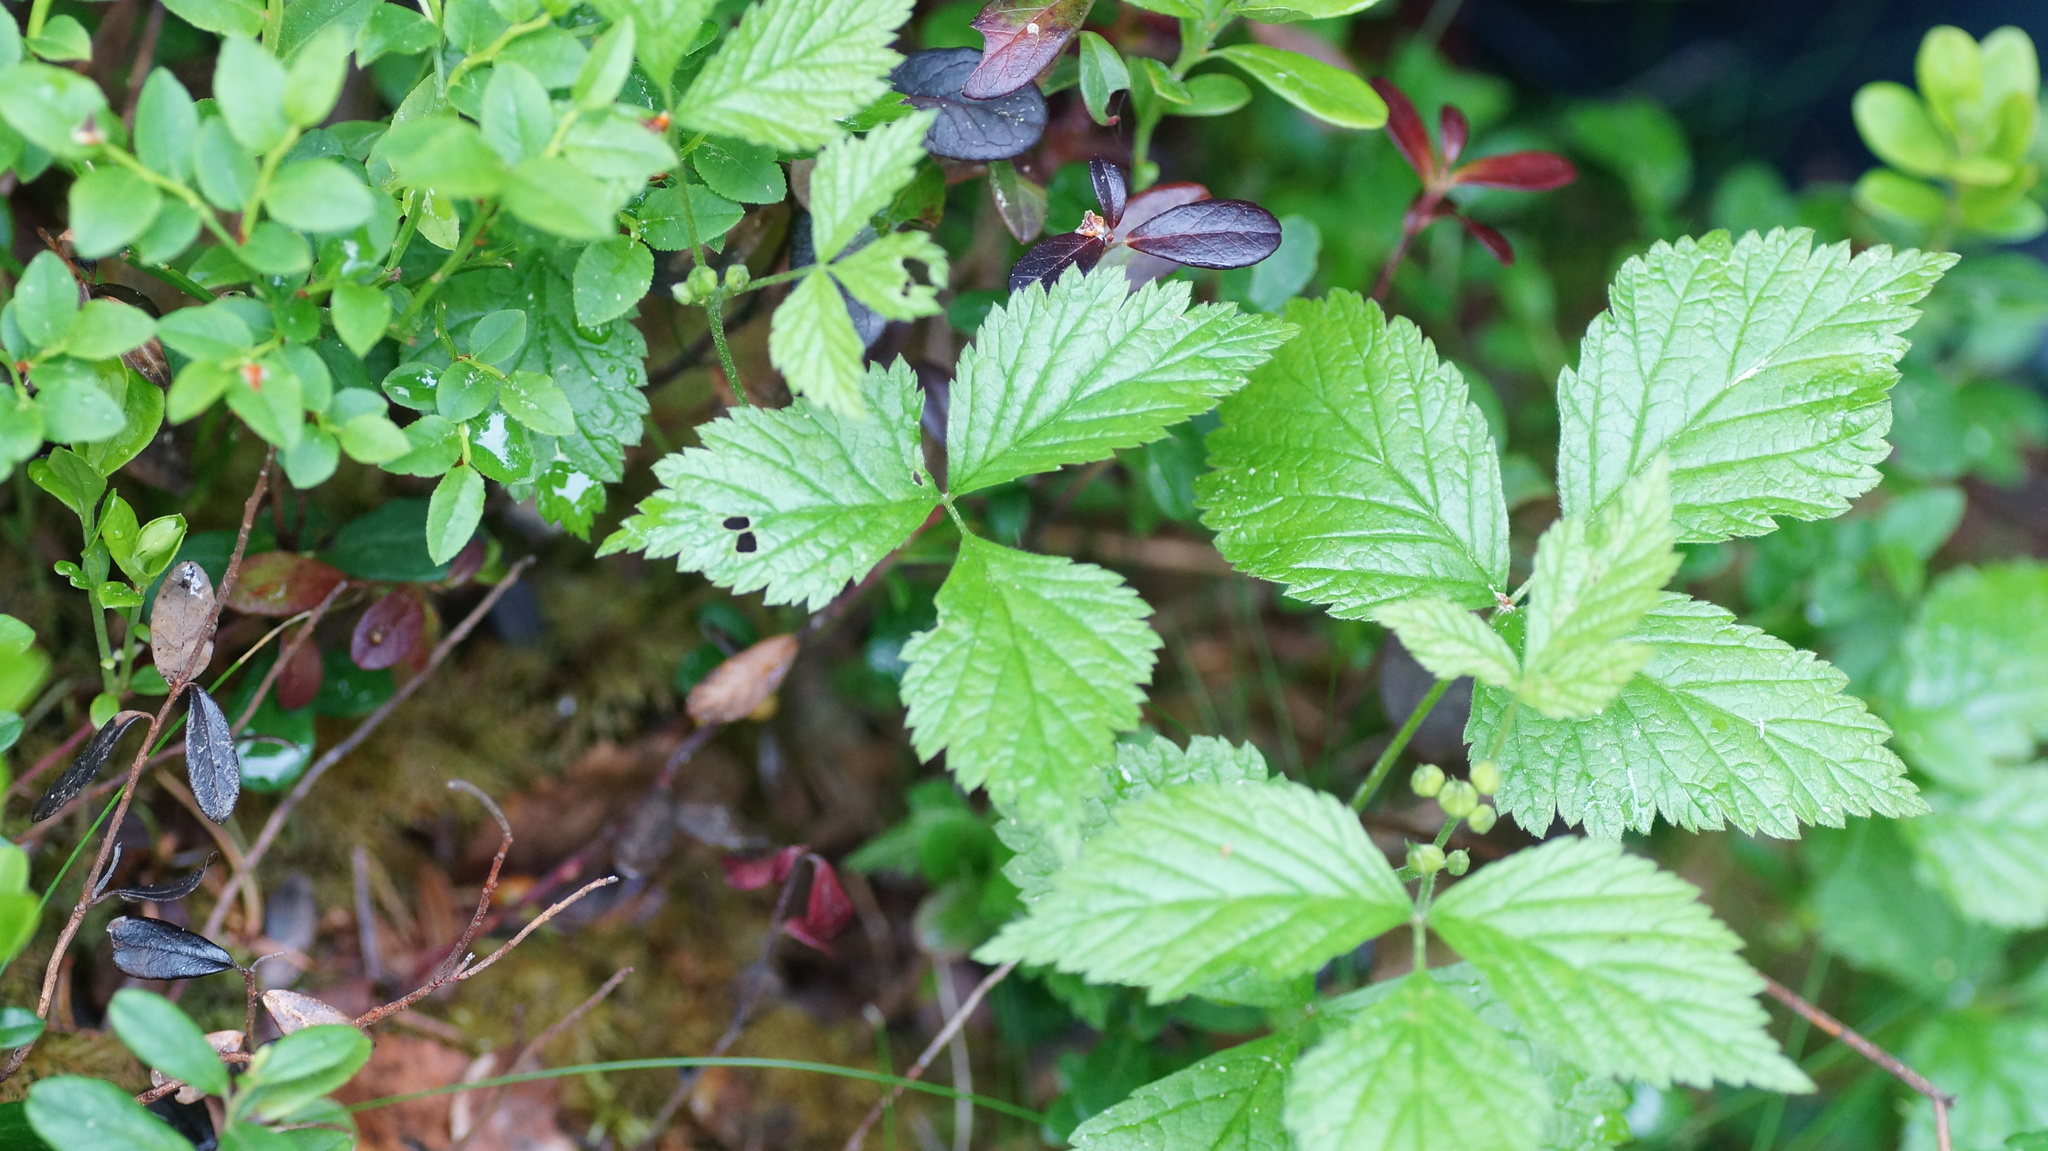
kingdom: Plantae
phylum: Tracheophyta
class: Magnoliopsida
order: Rosales
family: Rosaceae
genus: Rubus
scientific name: Rubus saxatilis
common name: Stone bramble
